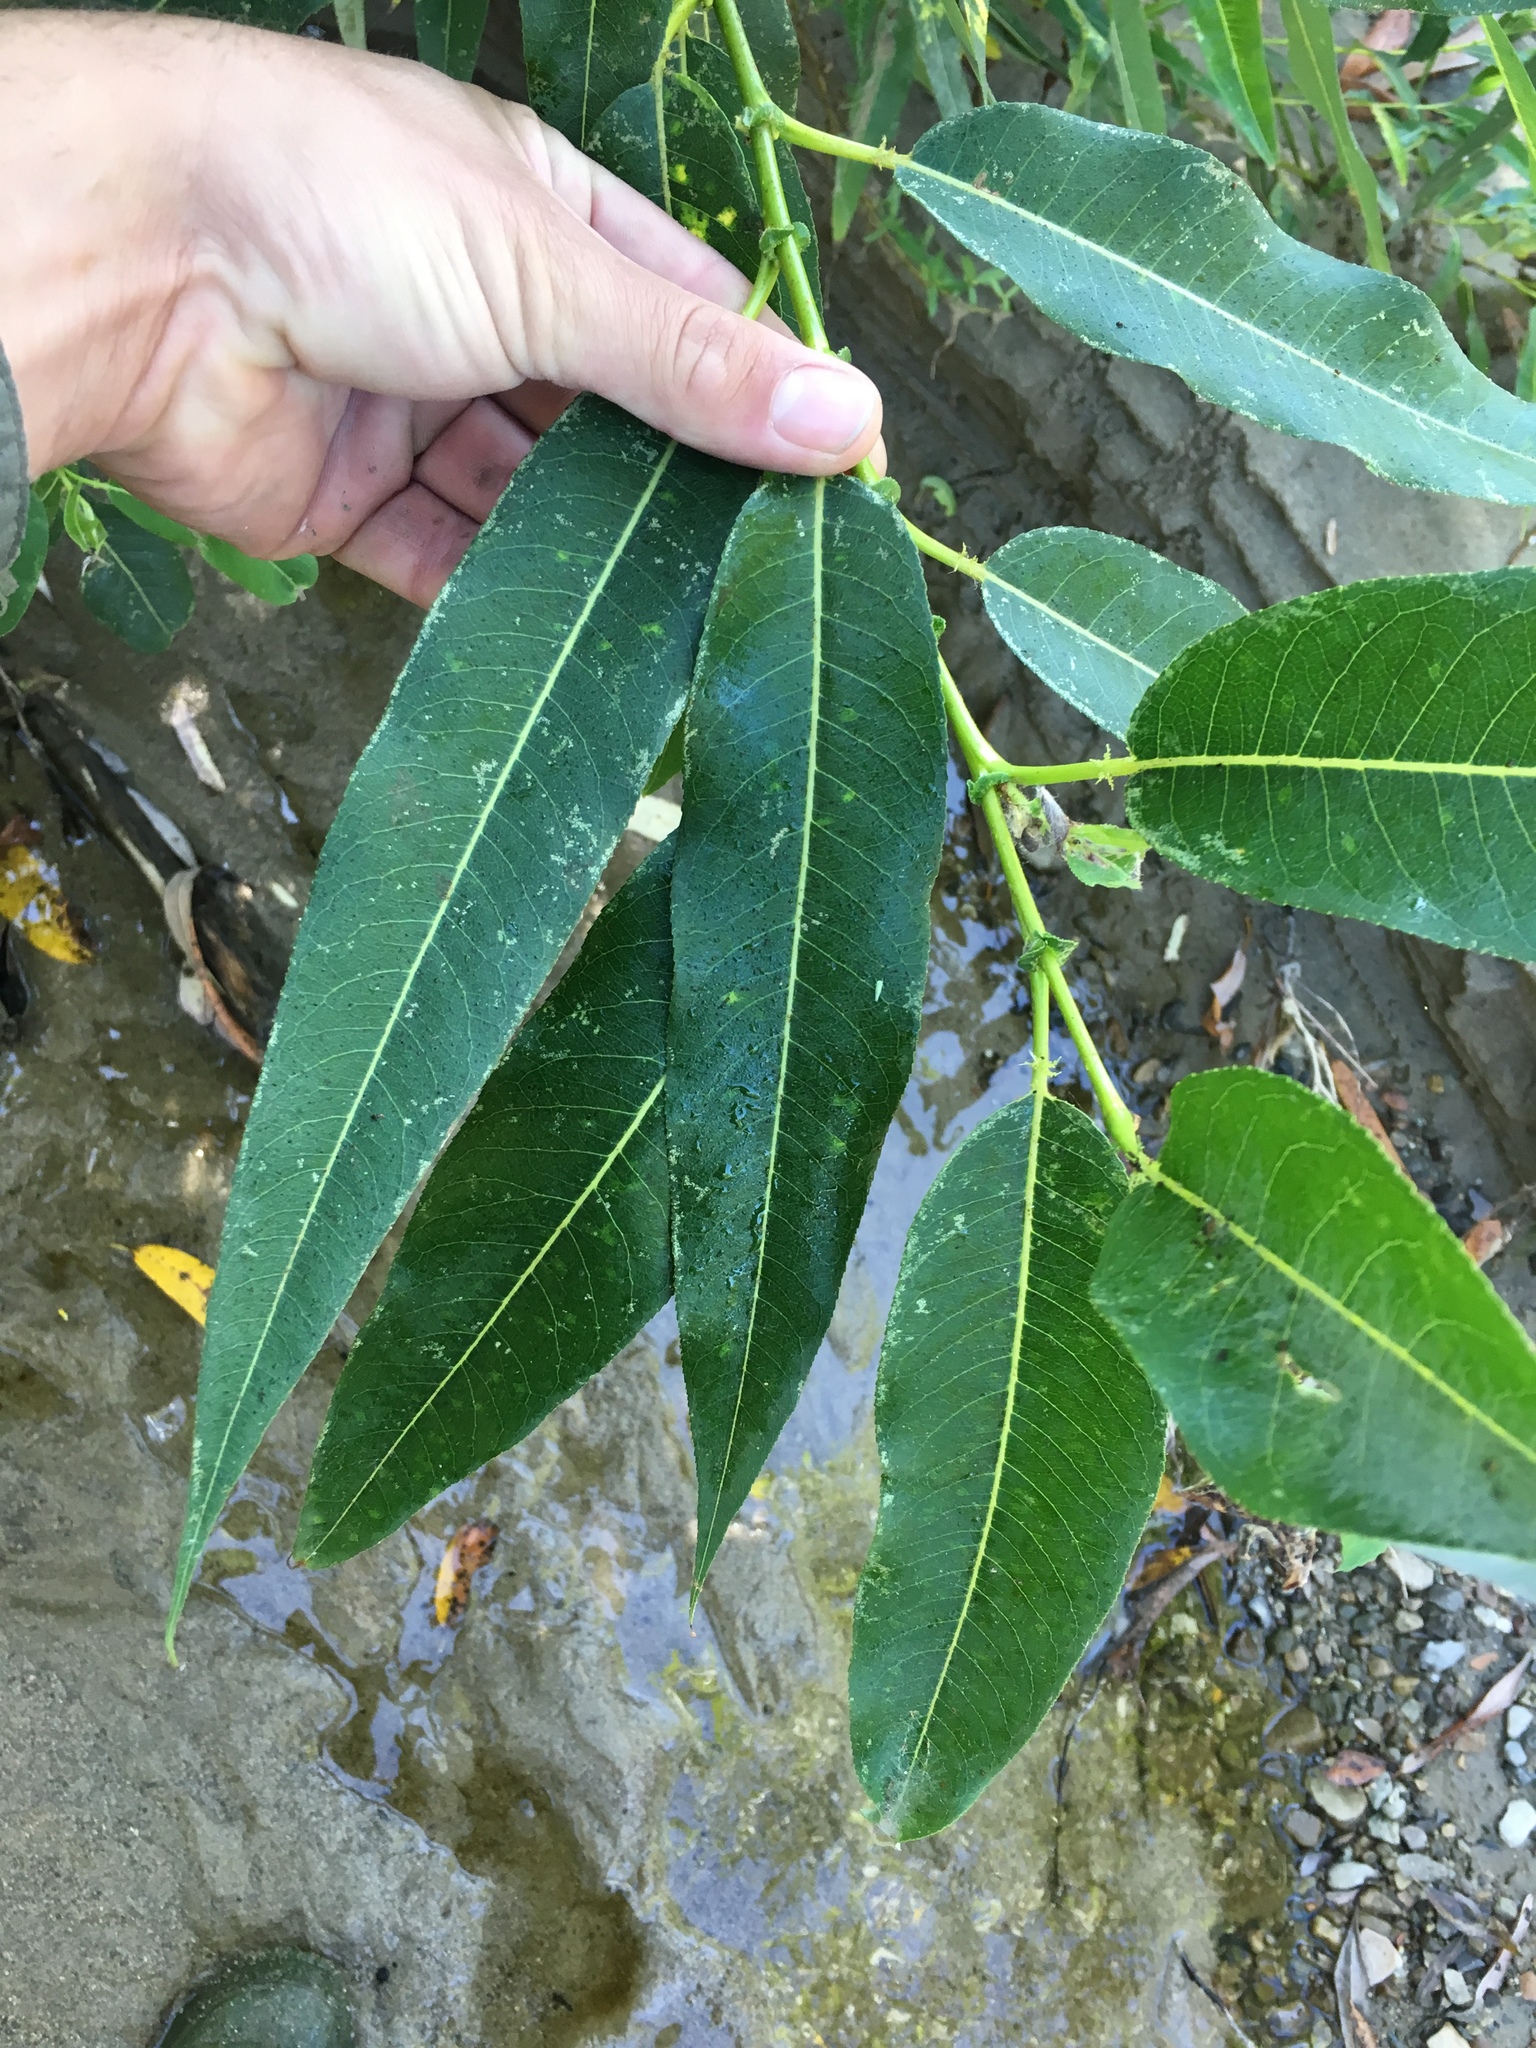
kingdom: Plantae
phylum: Tracheophyta
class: Magnoliopsida
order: Malpighiales
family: Salicaceae
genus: Salix
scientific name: Salix lucida
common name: Shining willow
